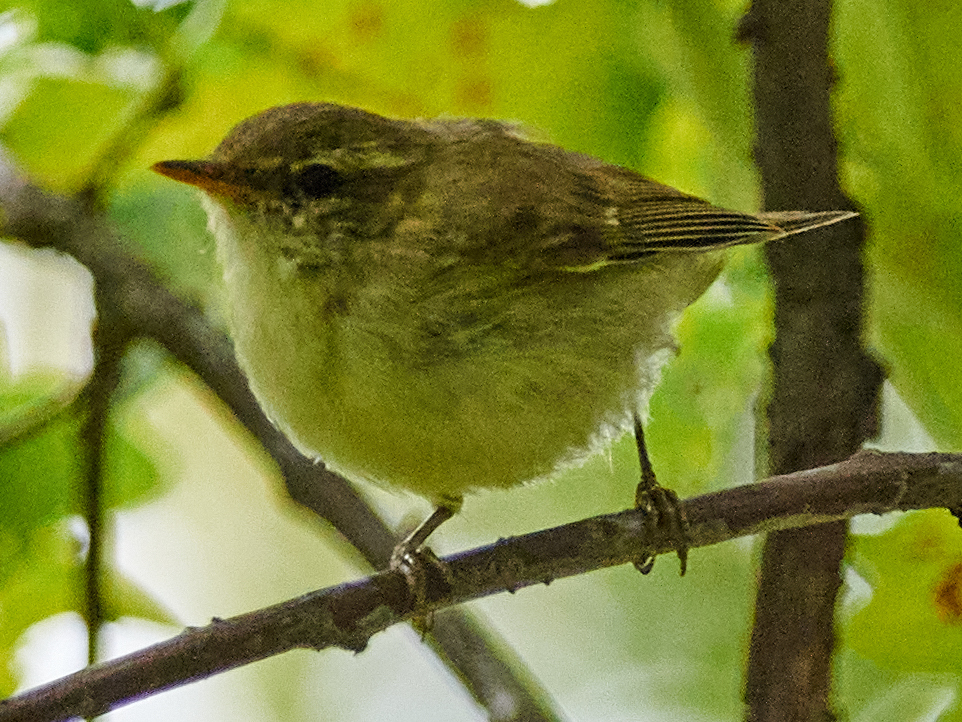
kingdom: Animalia
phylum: Chordata
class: Aves
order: Passeriformes
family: Phylloscopidae
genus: Phylloscopus
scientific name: Phylloscopus trochiloides
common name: Greenish warbler
